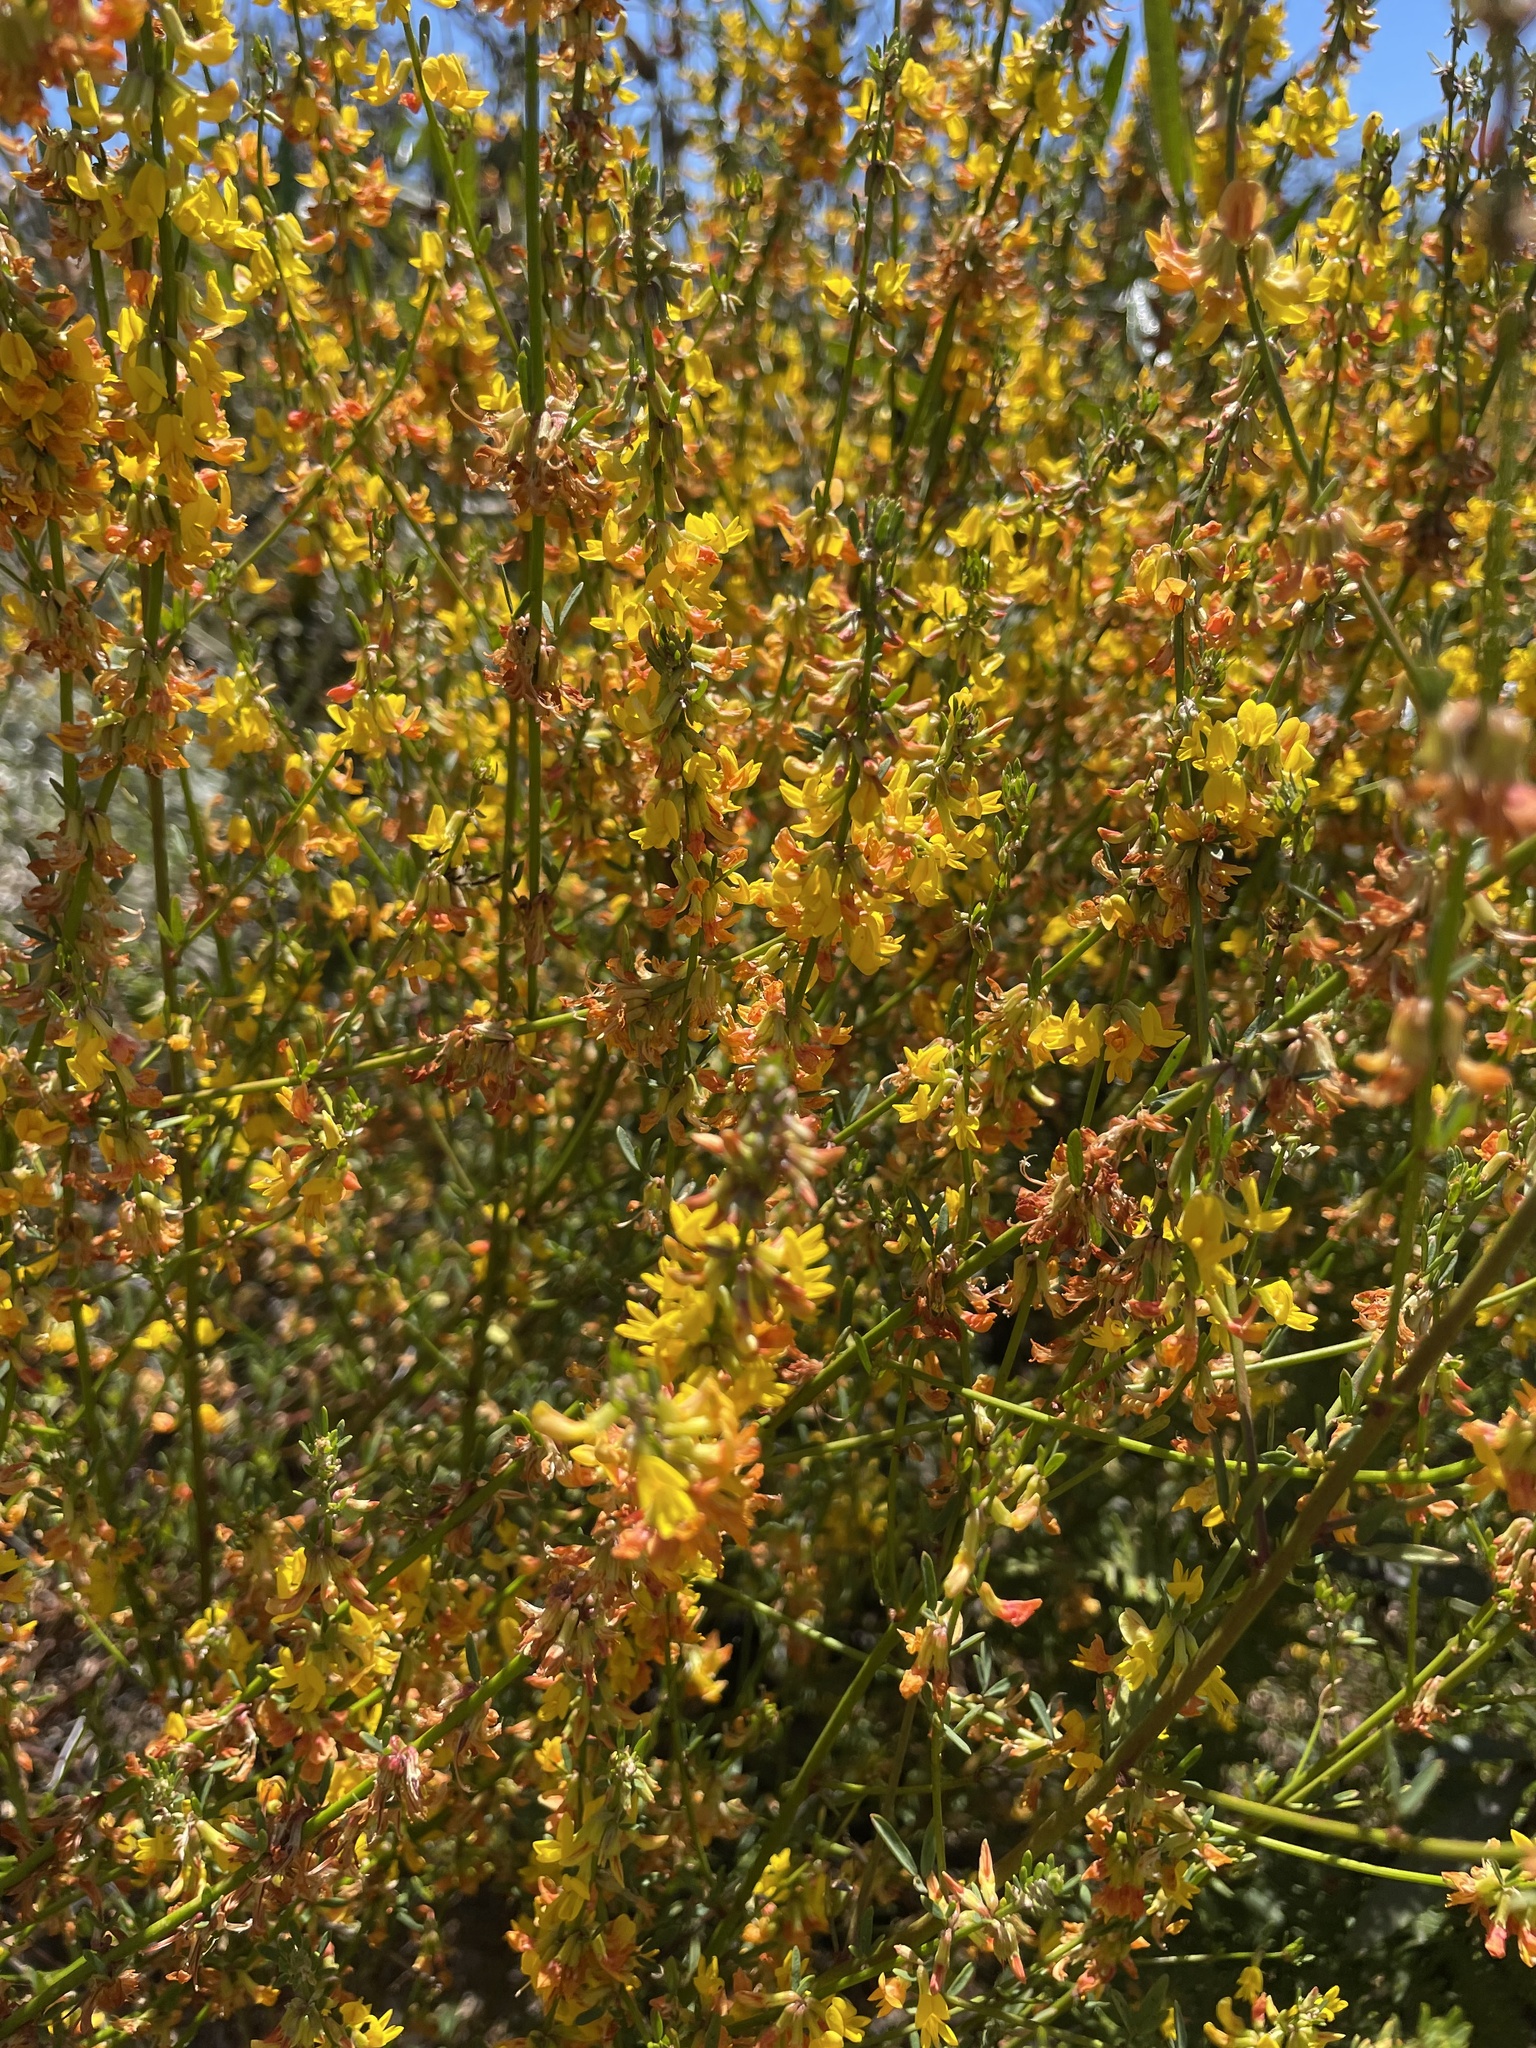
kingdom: Plantae
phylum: Tracheophyta
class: Magnoliopsida
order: Fabales
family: Fabaceae
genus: Acmispon
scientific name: Acmispon glaber
